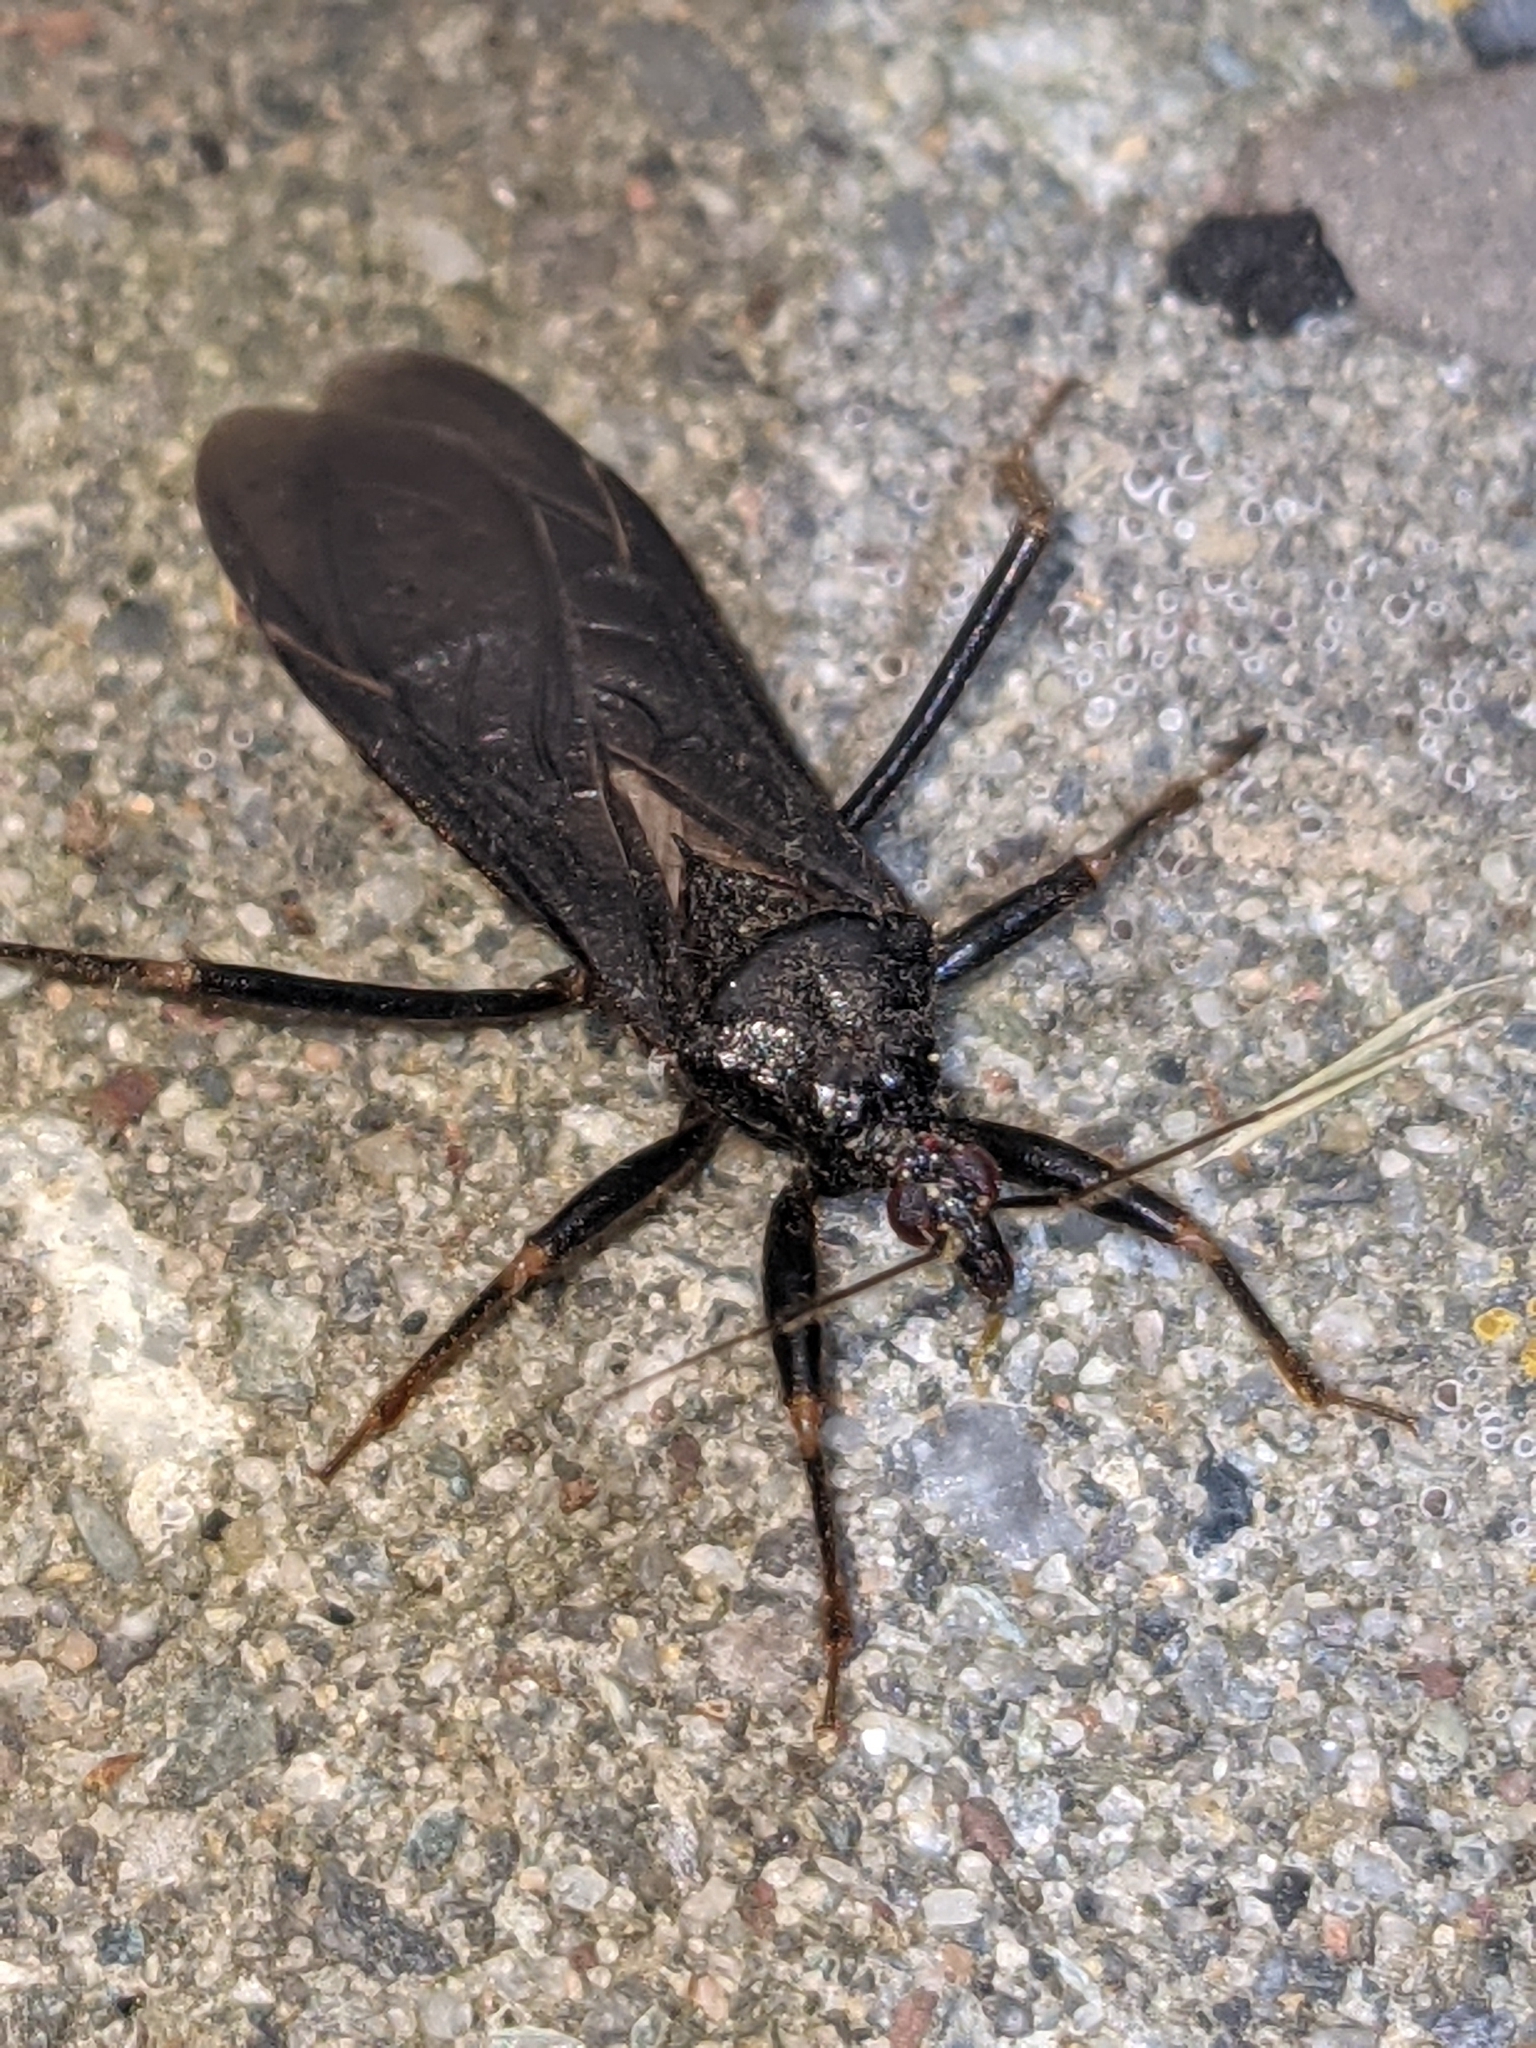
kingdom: Animalia
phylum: Arthropoda
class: Insecta
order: Hemiptera
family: Reduviidae
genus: Reduvius
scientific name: Reduvius personatus
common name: Masked hunter
